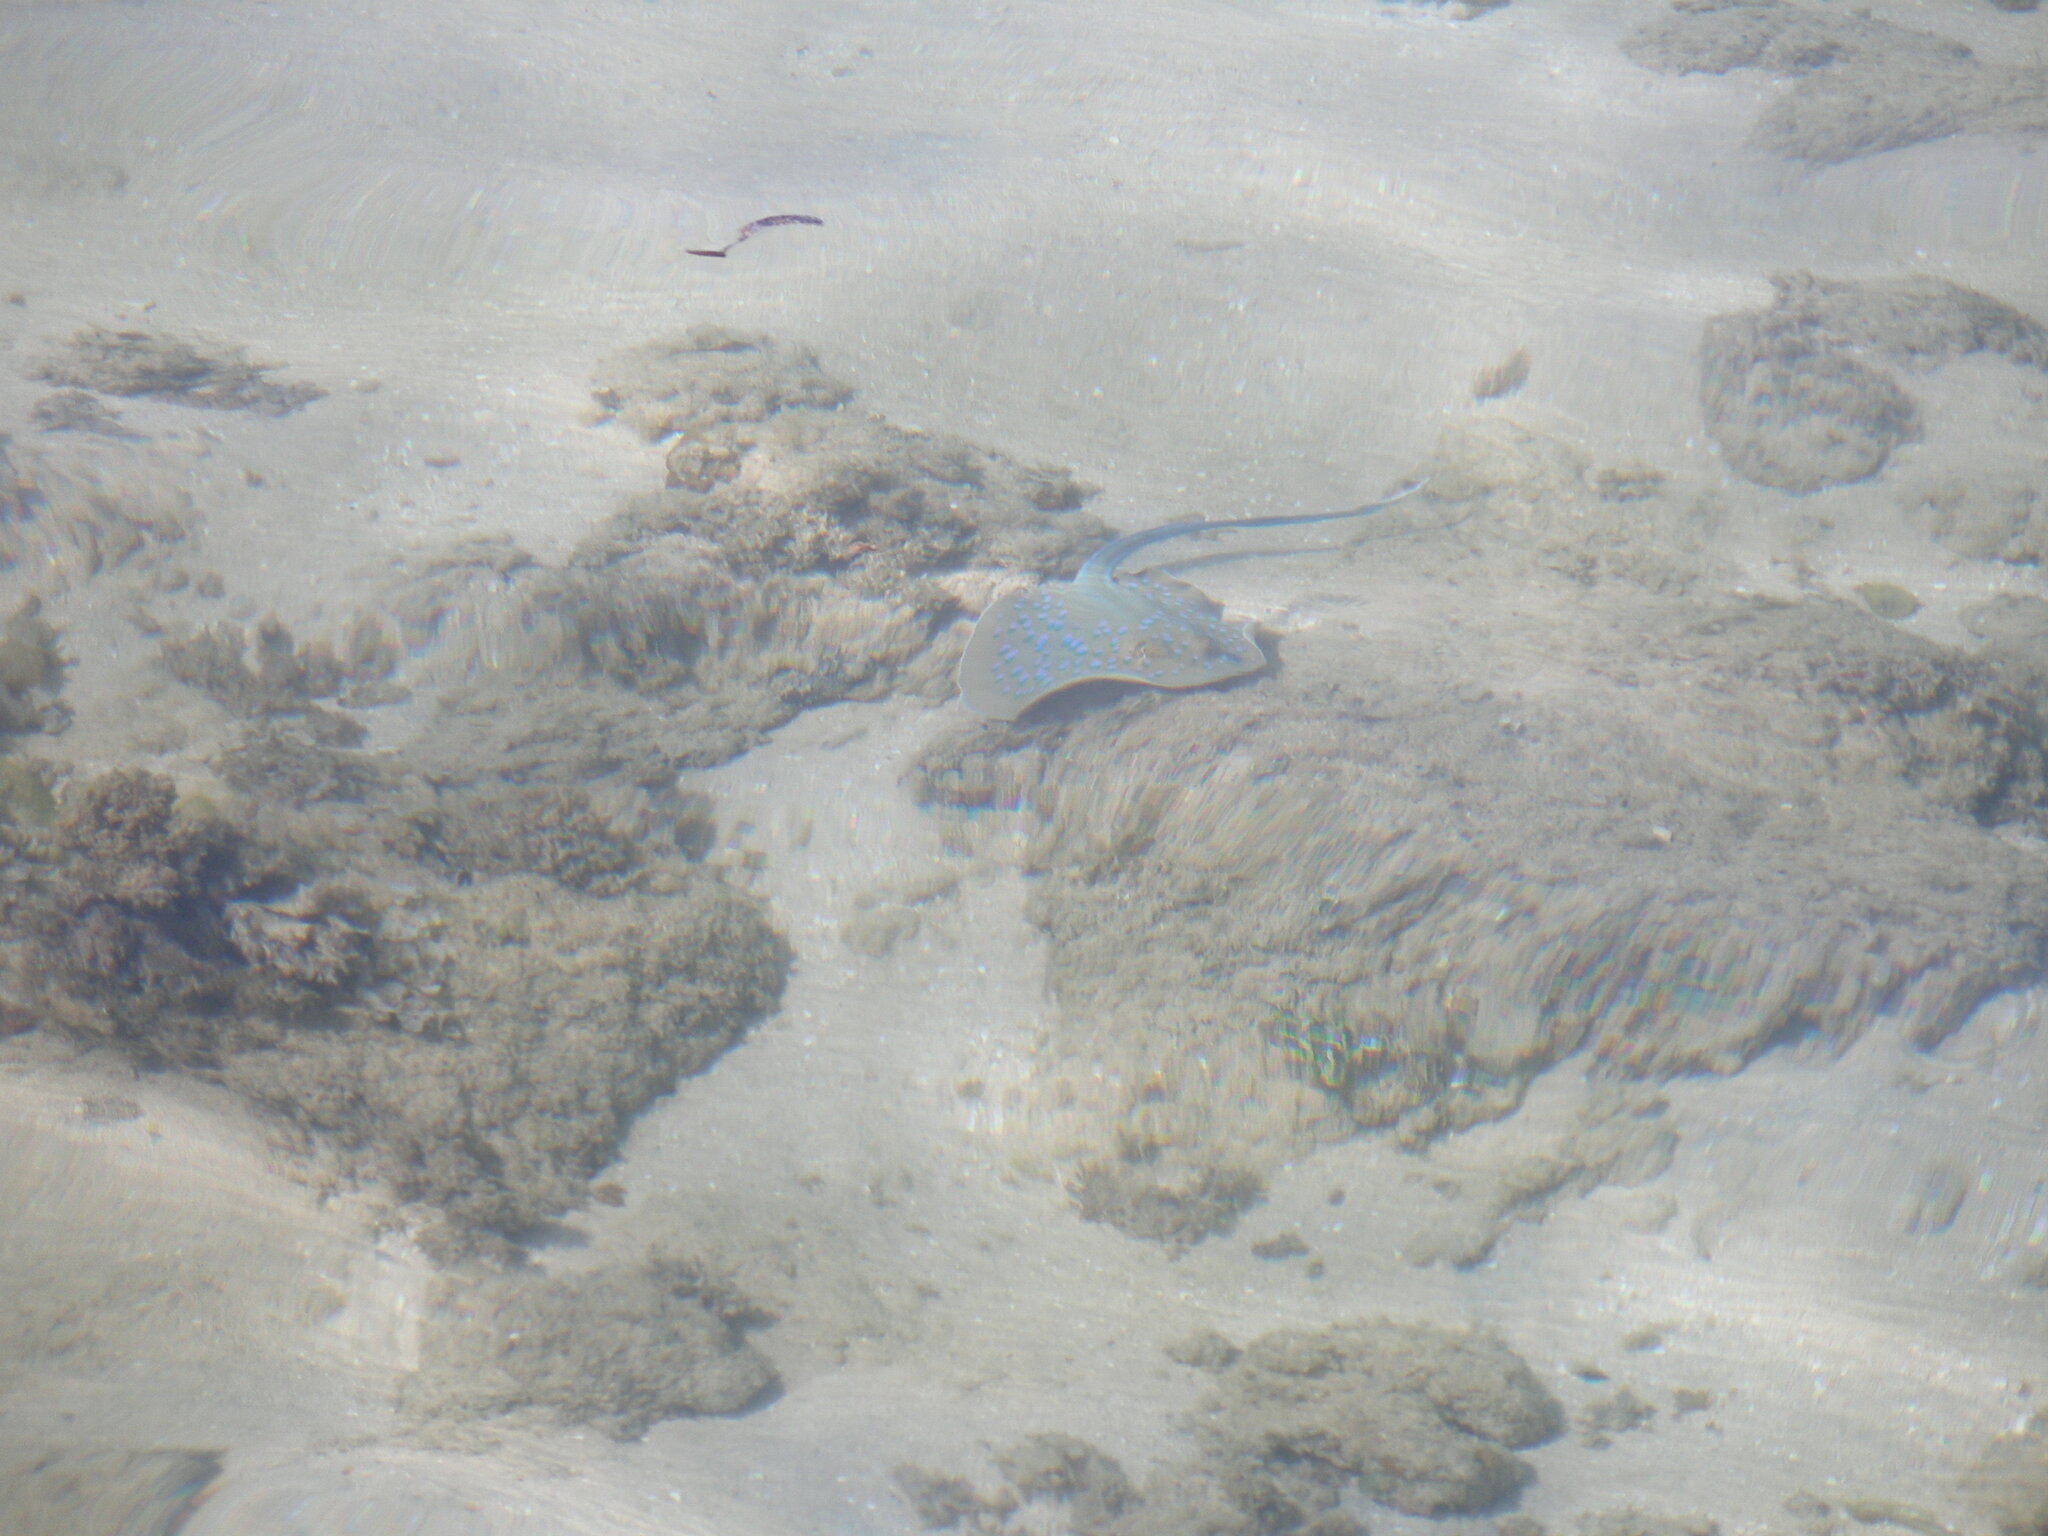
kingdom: Animalia
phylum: Chordata
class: Elasmobranchii
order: Myliobatiformes
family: Dasyatidae
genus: Taeniura
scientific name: Taeniura lymma
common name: Bluespotted ribbontail ray
